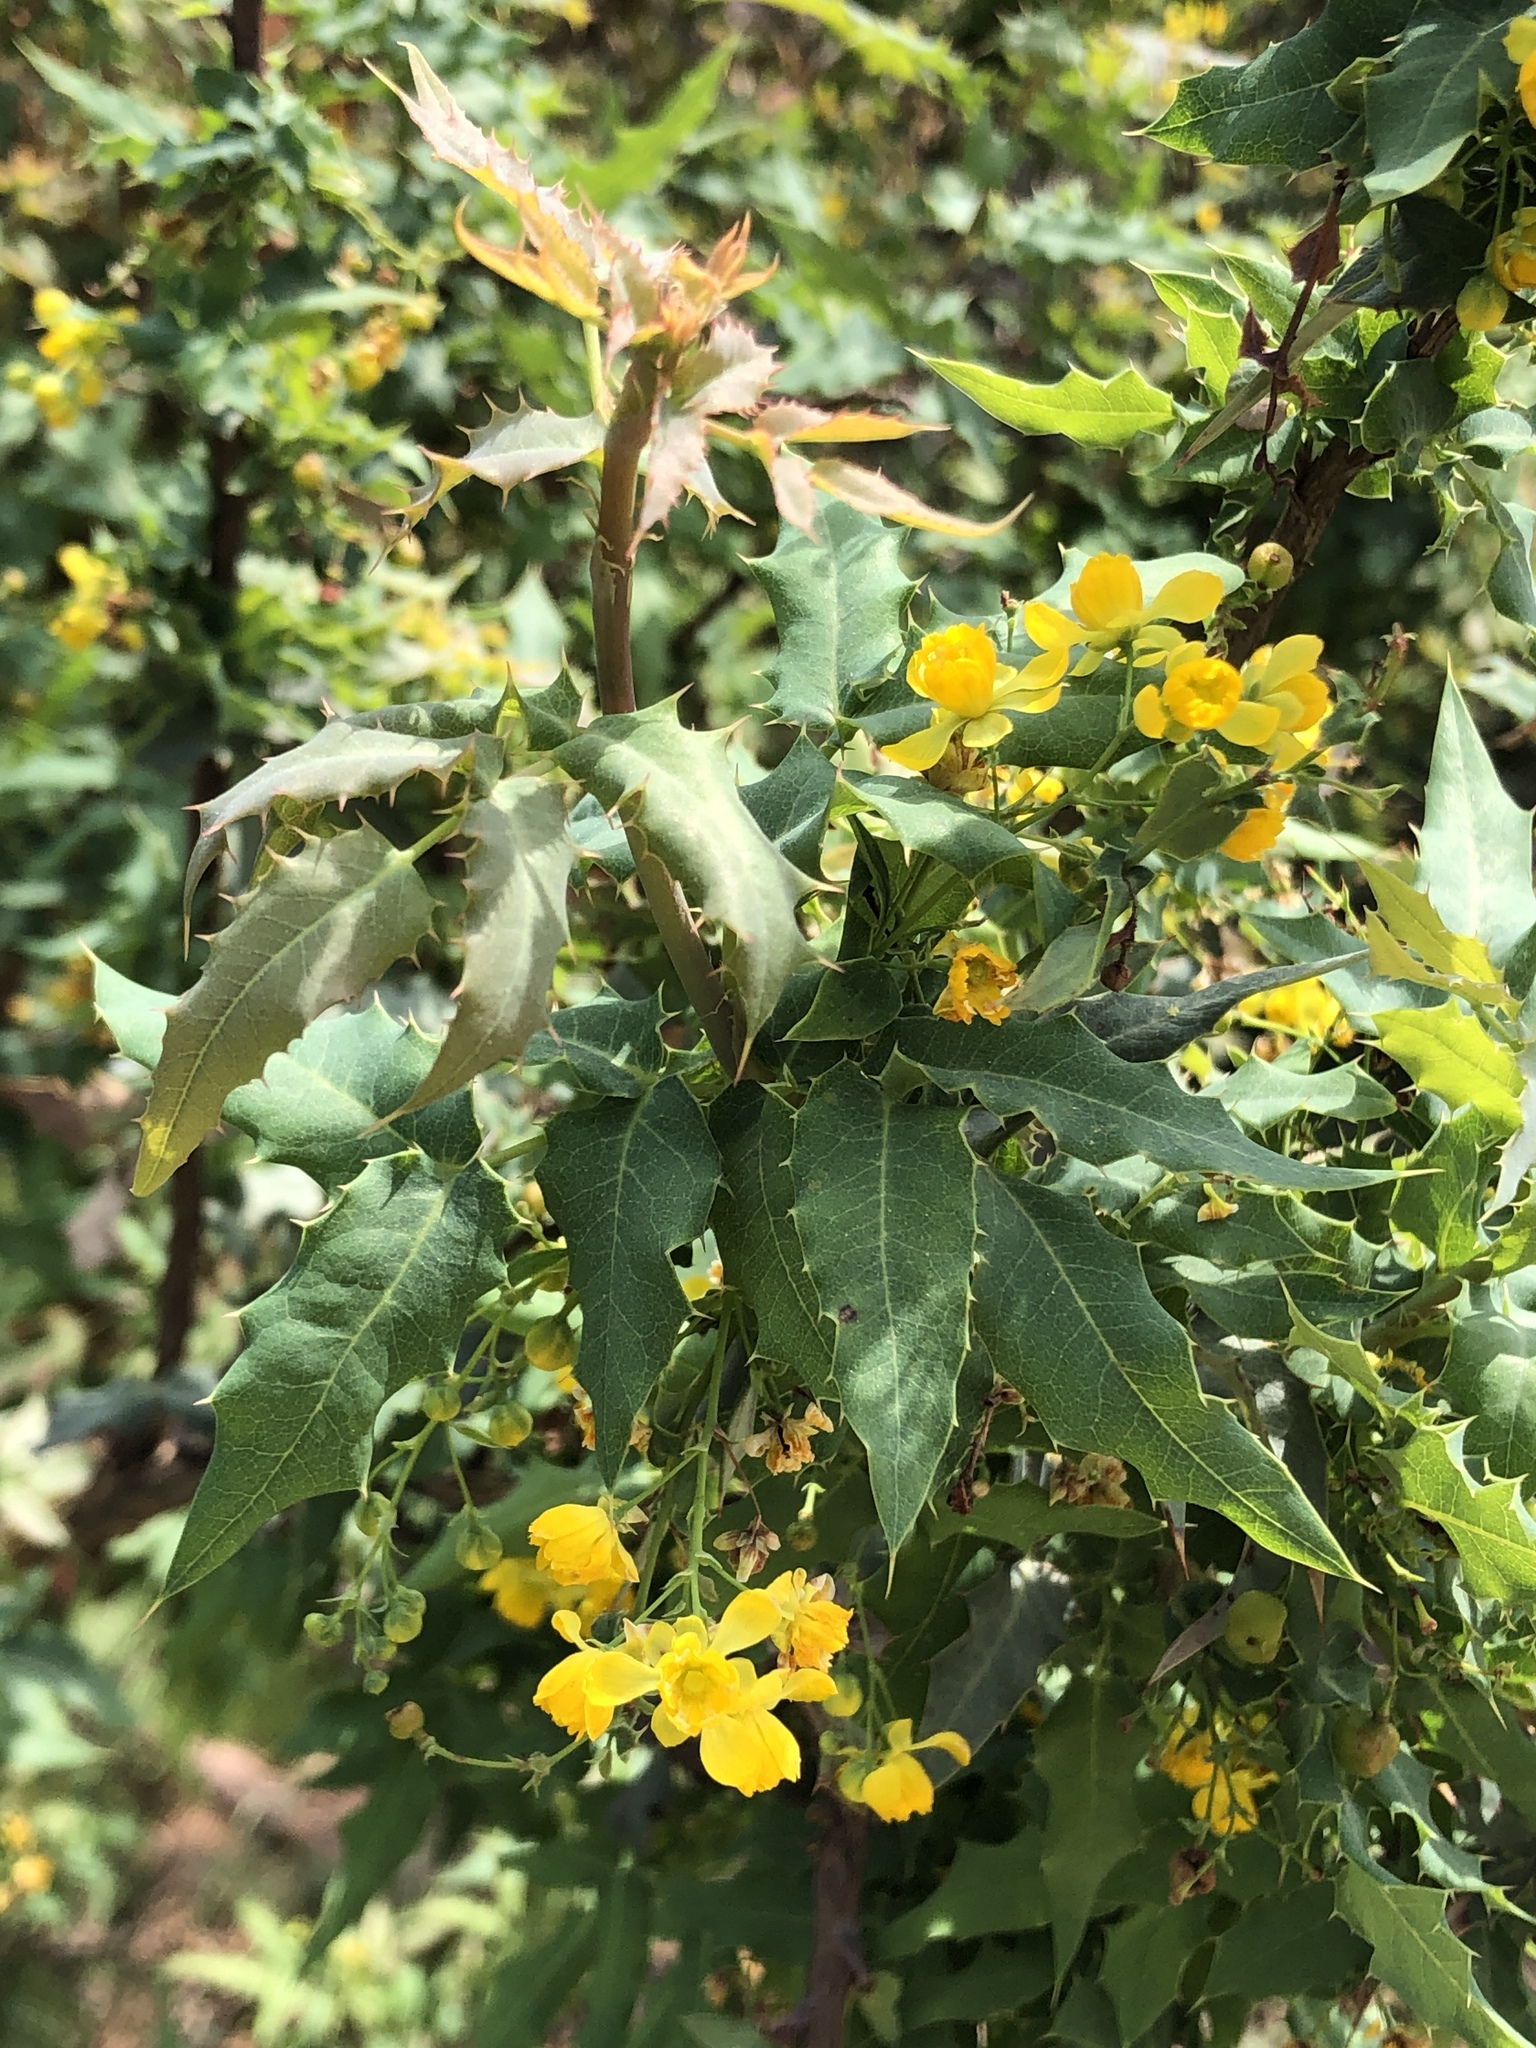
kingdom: Plantae
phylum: Tracheophyta
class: Magnoliopsida
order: Ranunculales
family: Berberidaceae
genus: Alloberberis
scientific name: Alloberberis nevinii
